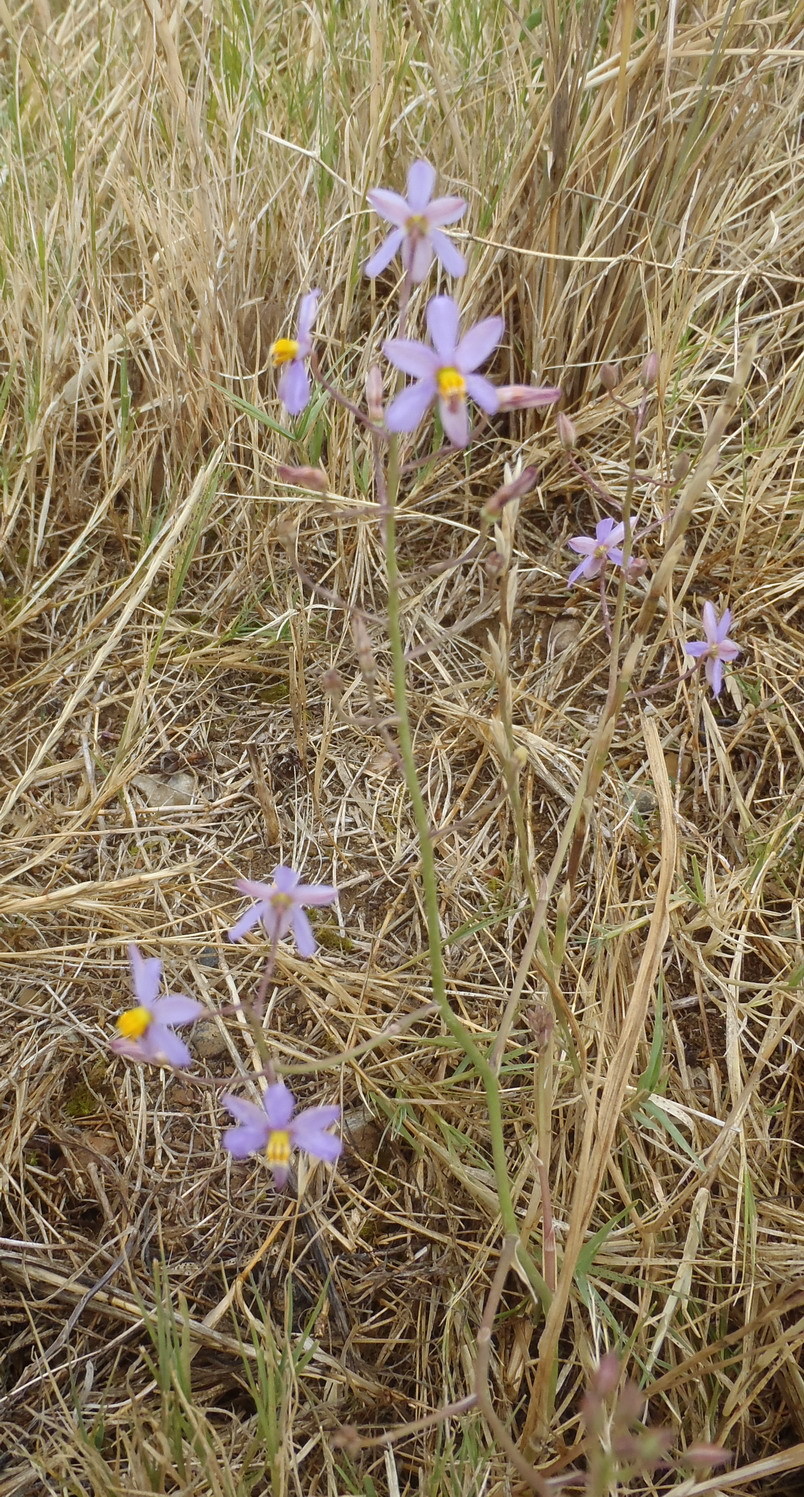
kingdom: Plantae
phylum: Tracheophyta
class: Liliopsida
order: Asparagales
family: Tecophilaeaceae
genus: Cyanella
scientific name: Cyanella hyacinthoides
